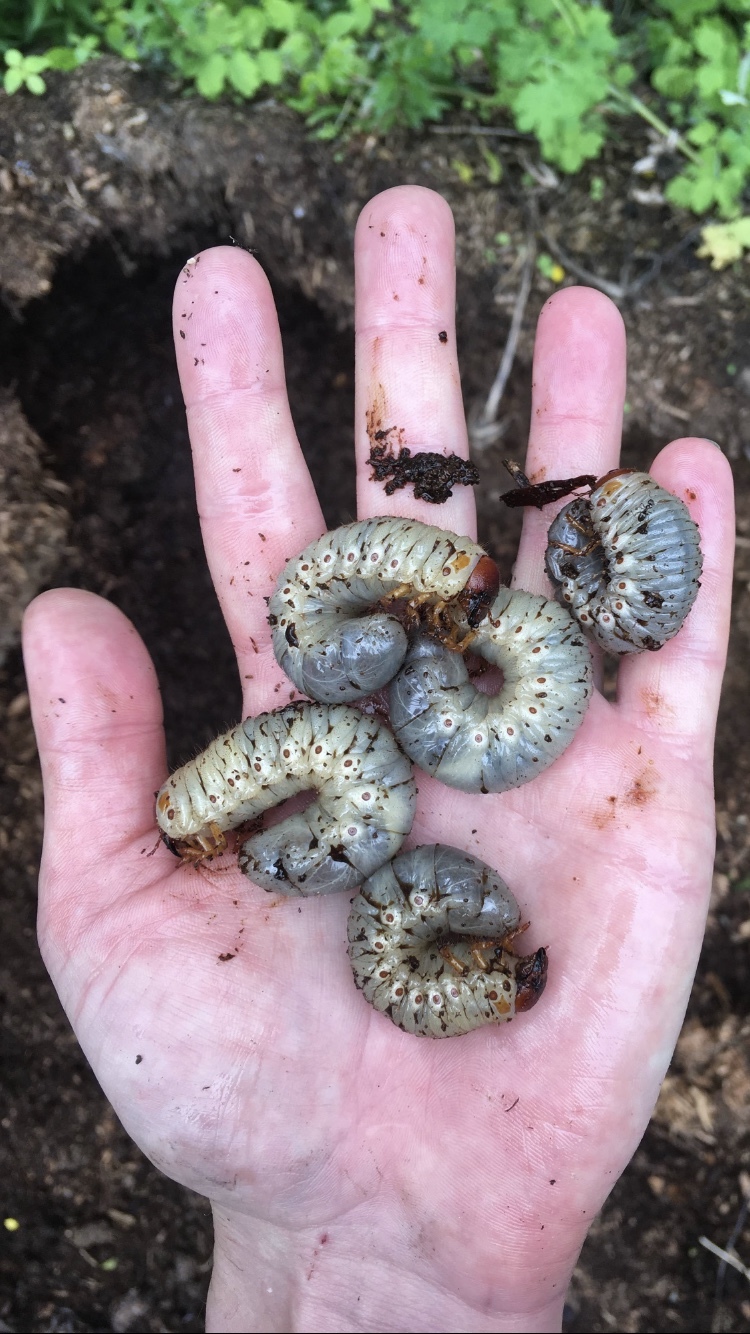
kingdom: Animalia
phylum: Arthropoda
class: Insecta
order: Coleoptera
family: Scarabaeidae
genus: Oryctes
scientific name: Oryctes nasicornis
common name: European rhinoceros beetle
